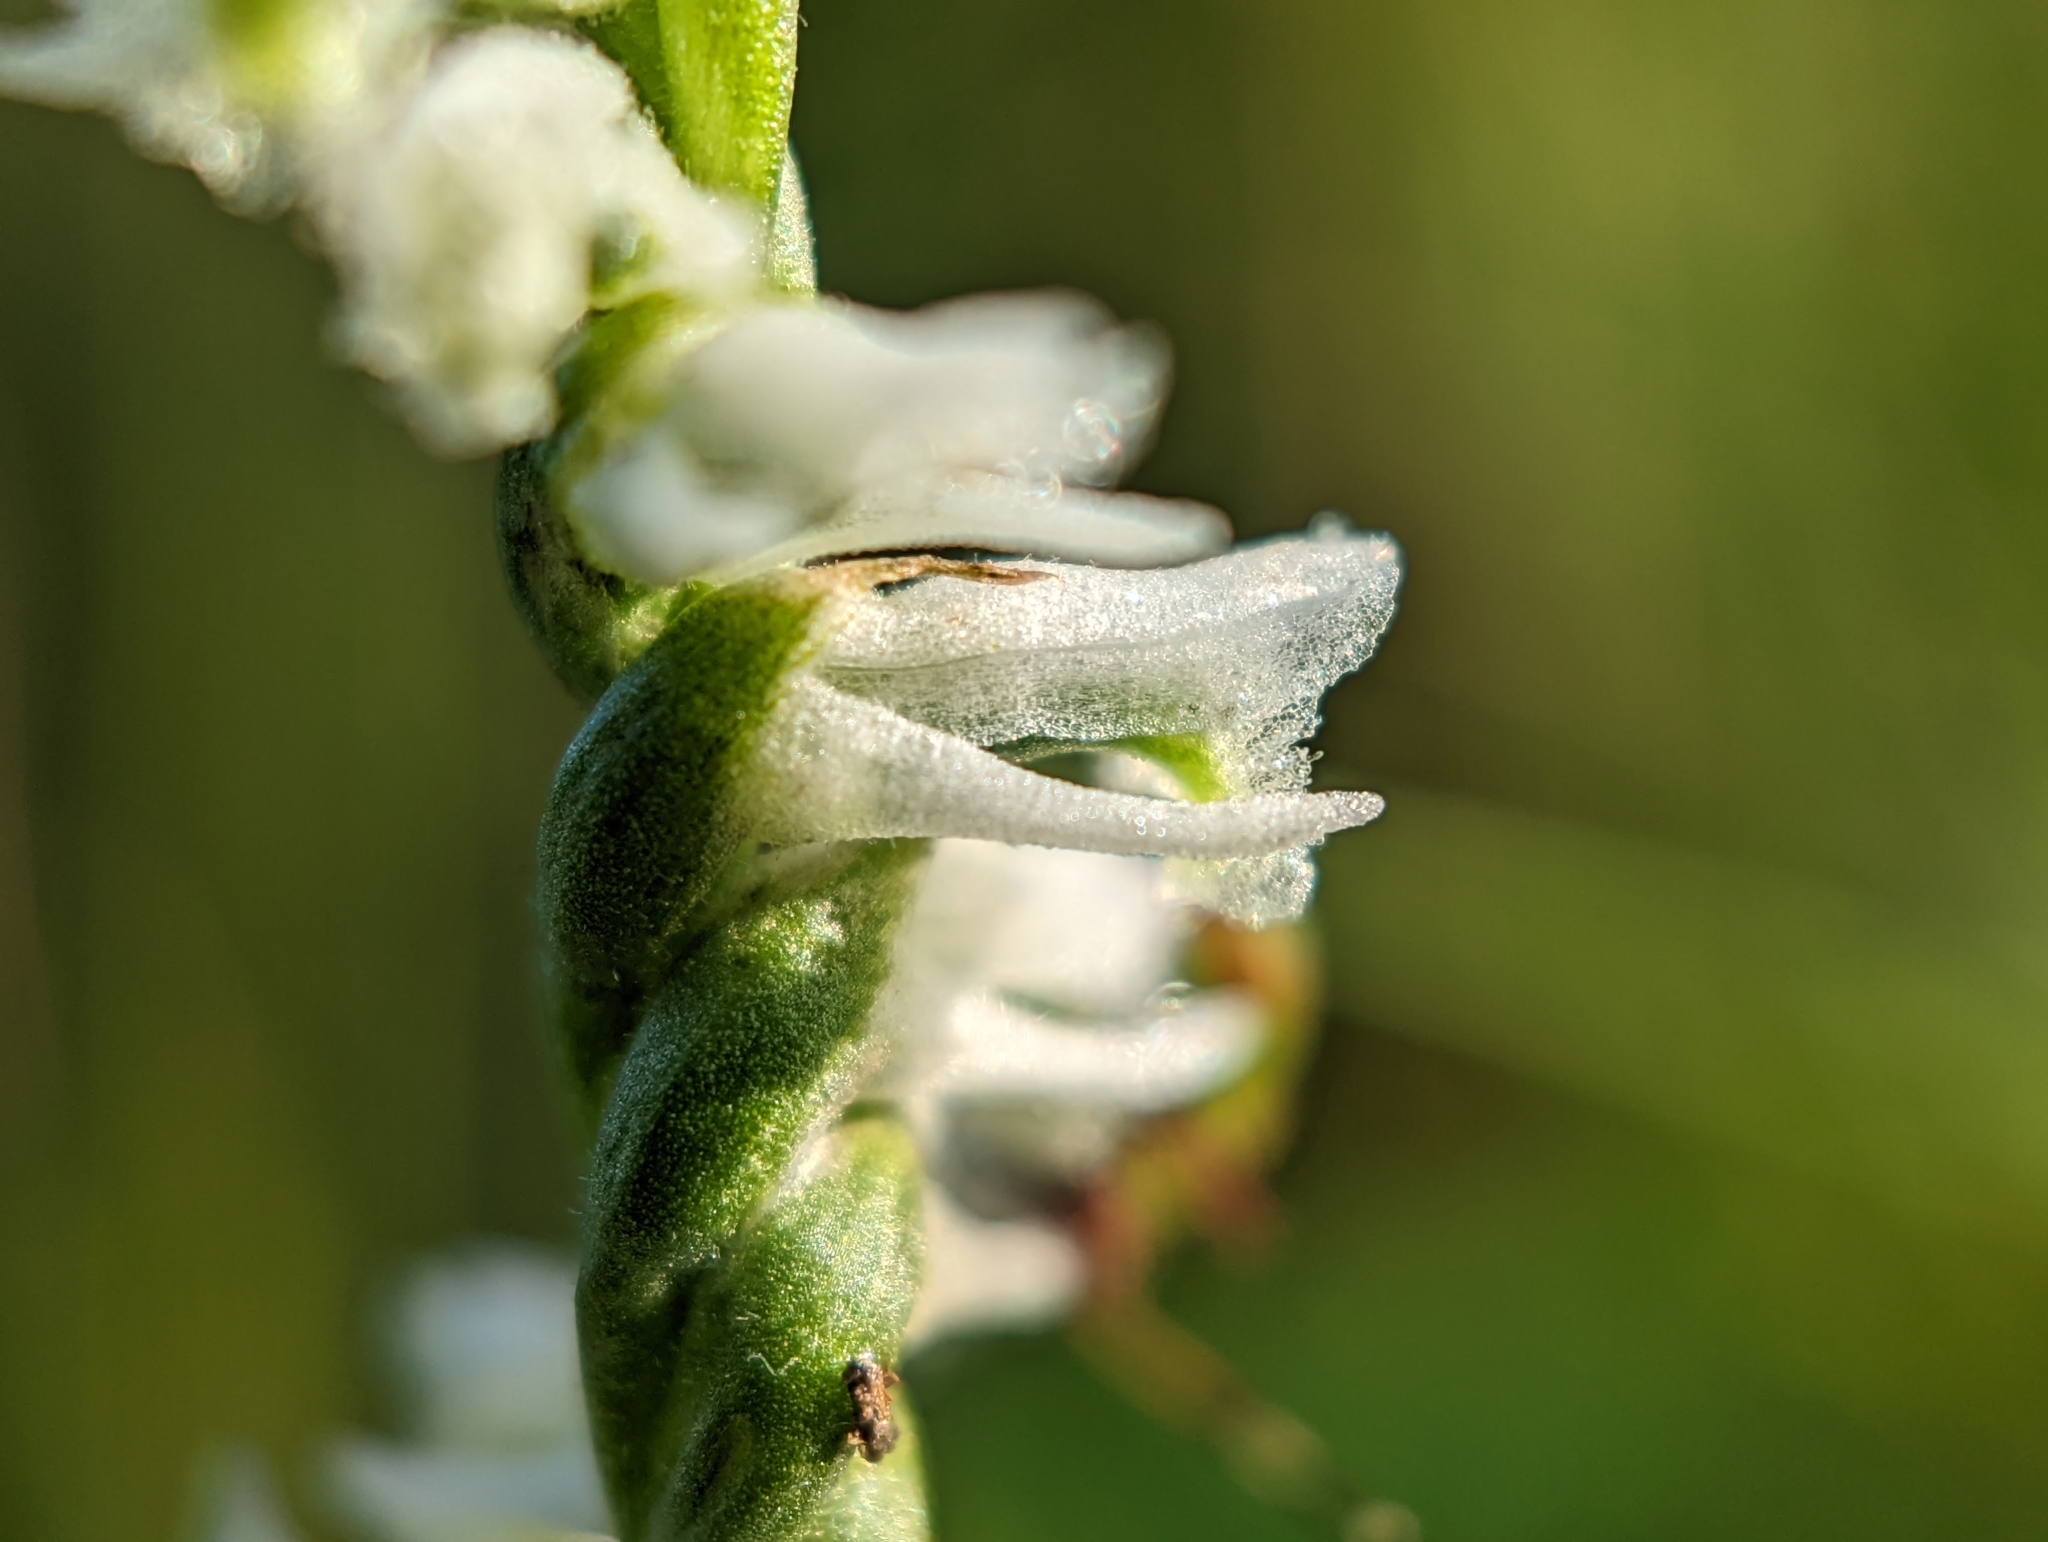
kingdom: Plantae
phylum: Tracheophyta
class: Liliopsida
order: Asparagales
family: Orchidaceae
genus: Spiranthes
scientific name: Spiranthes lacera
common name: Northern slender ladies'-tresses
